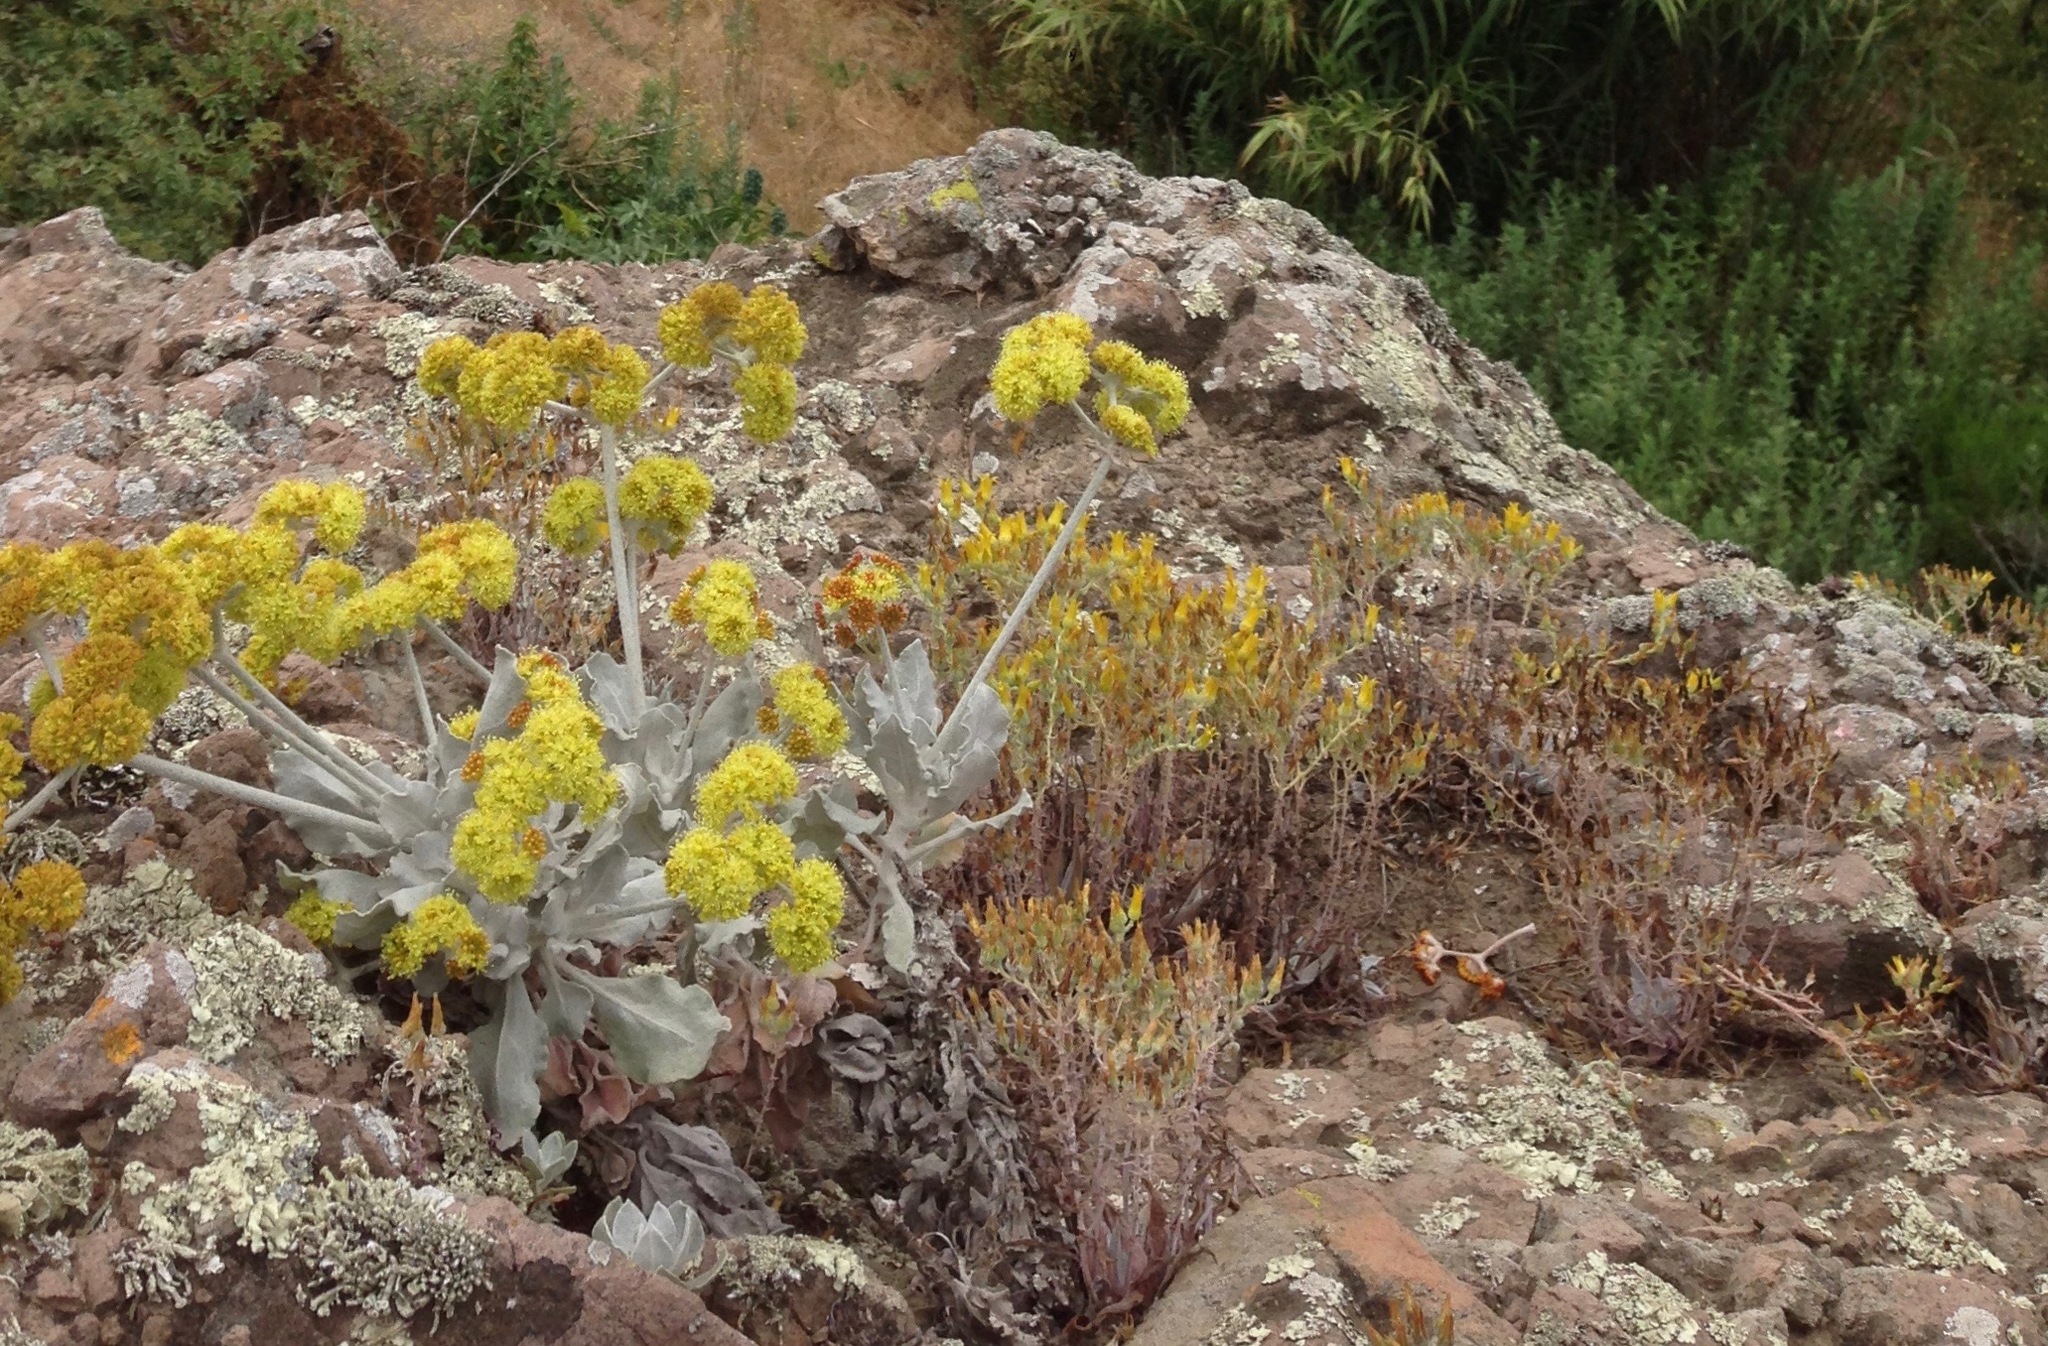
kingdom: Plantae
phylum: Tracheophyta
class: Magnoliopsida
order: Saxifragales
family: Crassulaceae
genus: Dudleya
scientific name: Dudleya verityi
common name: Verity dudleya
